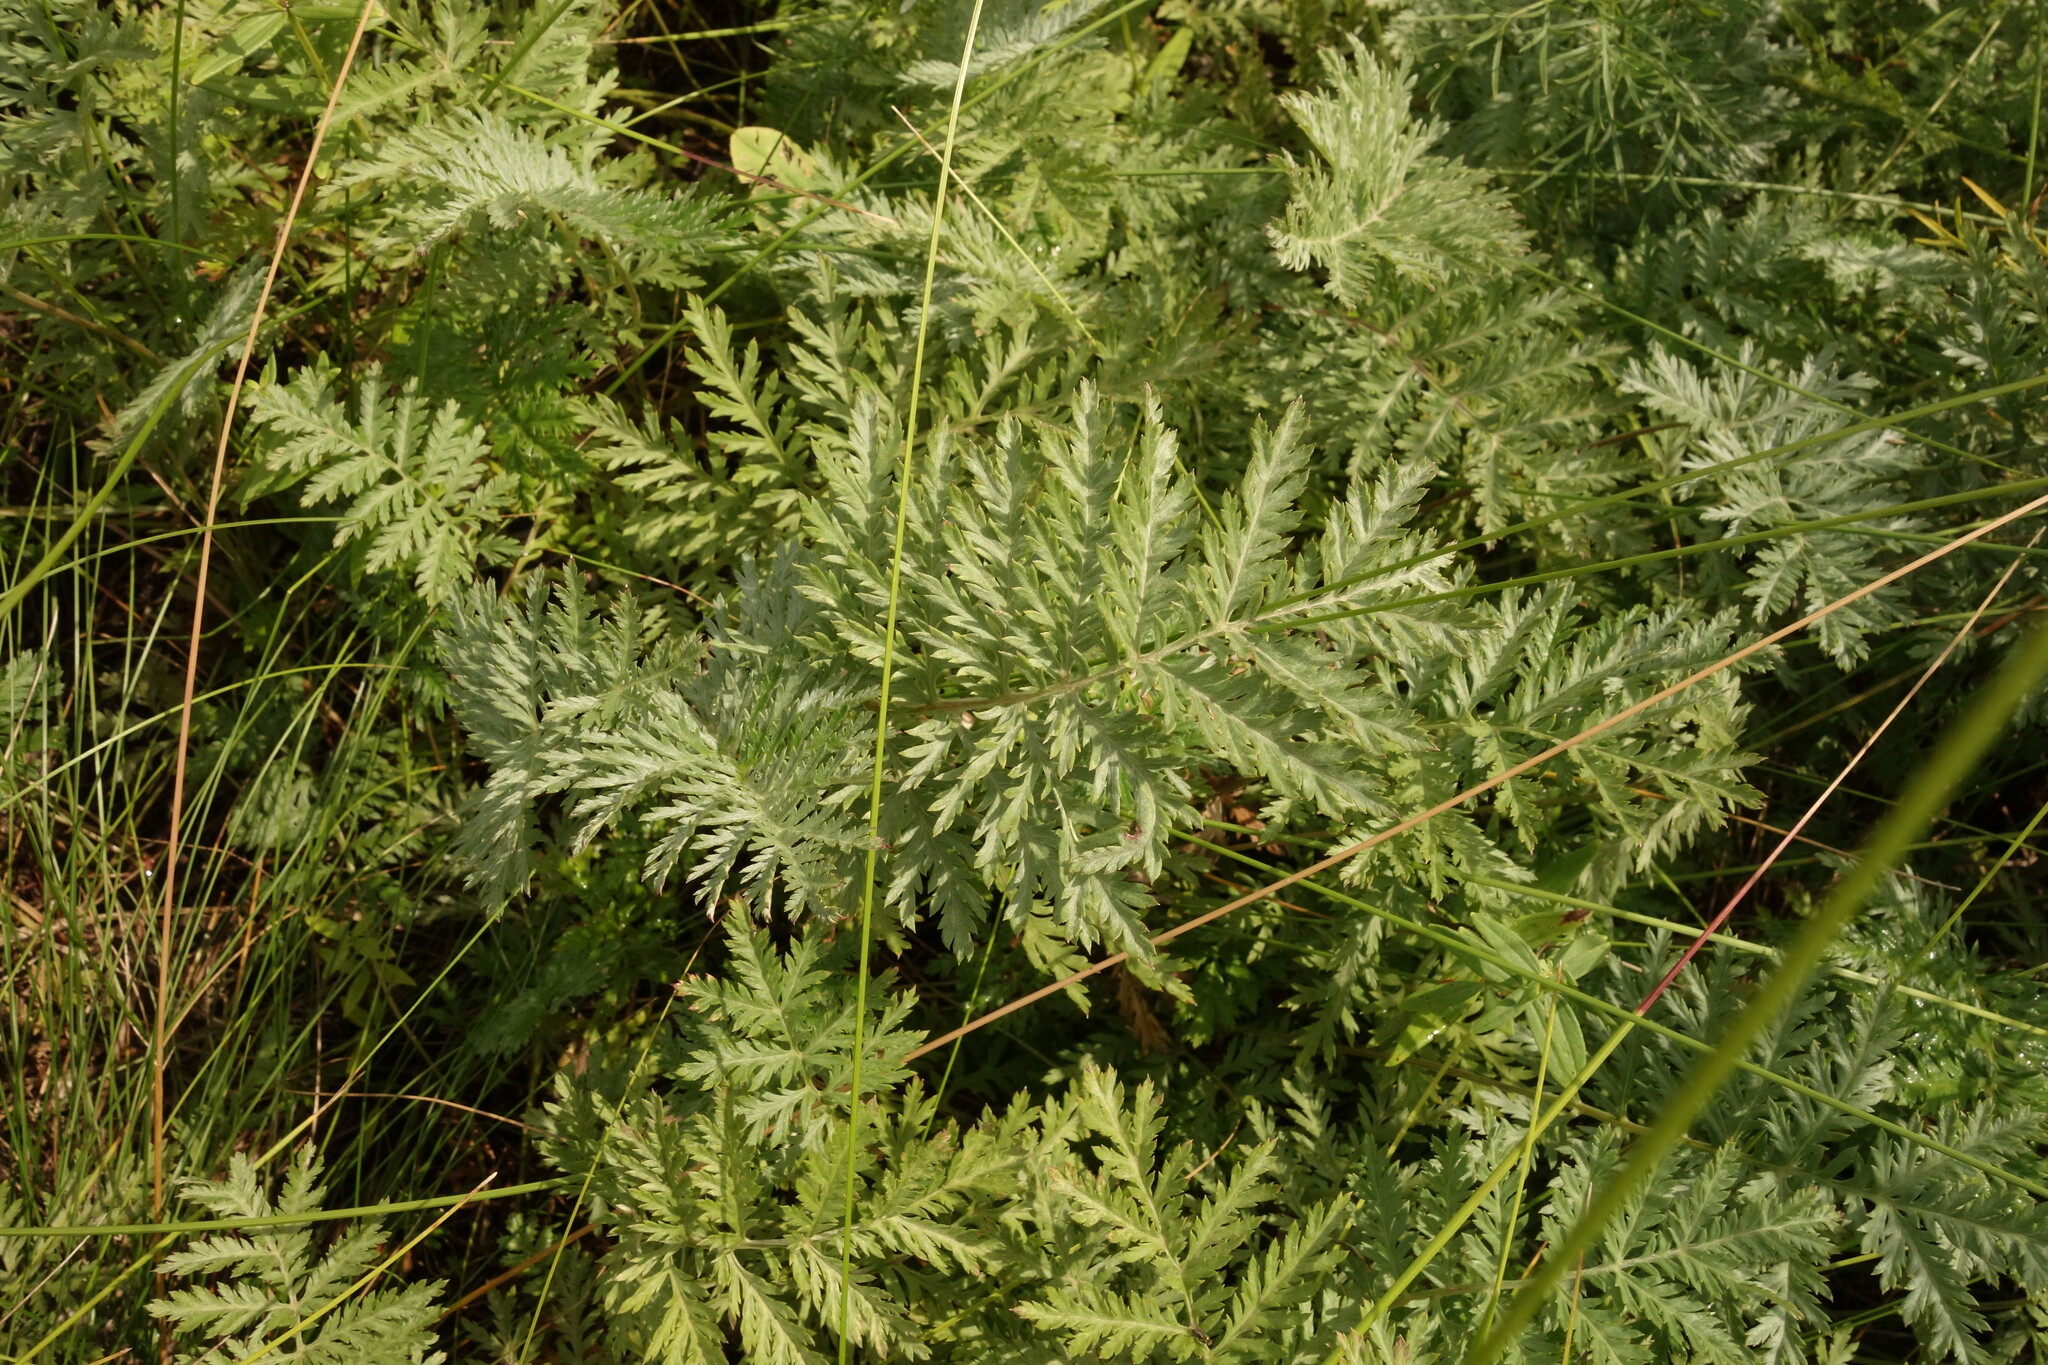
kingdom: Plantae
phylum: Tracheophyta
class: Magnoliopsida
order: Asterales
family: Asteraceae
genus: Artemisia
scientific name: Artemisia armeniaca
